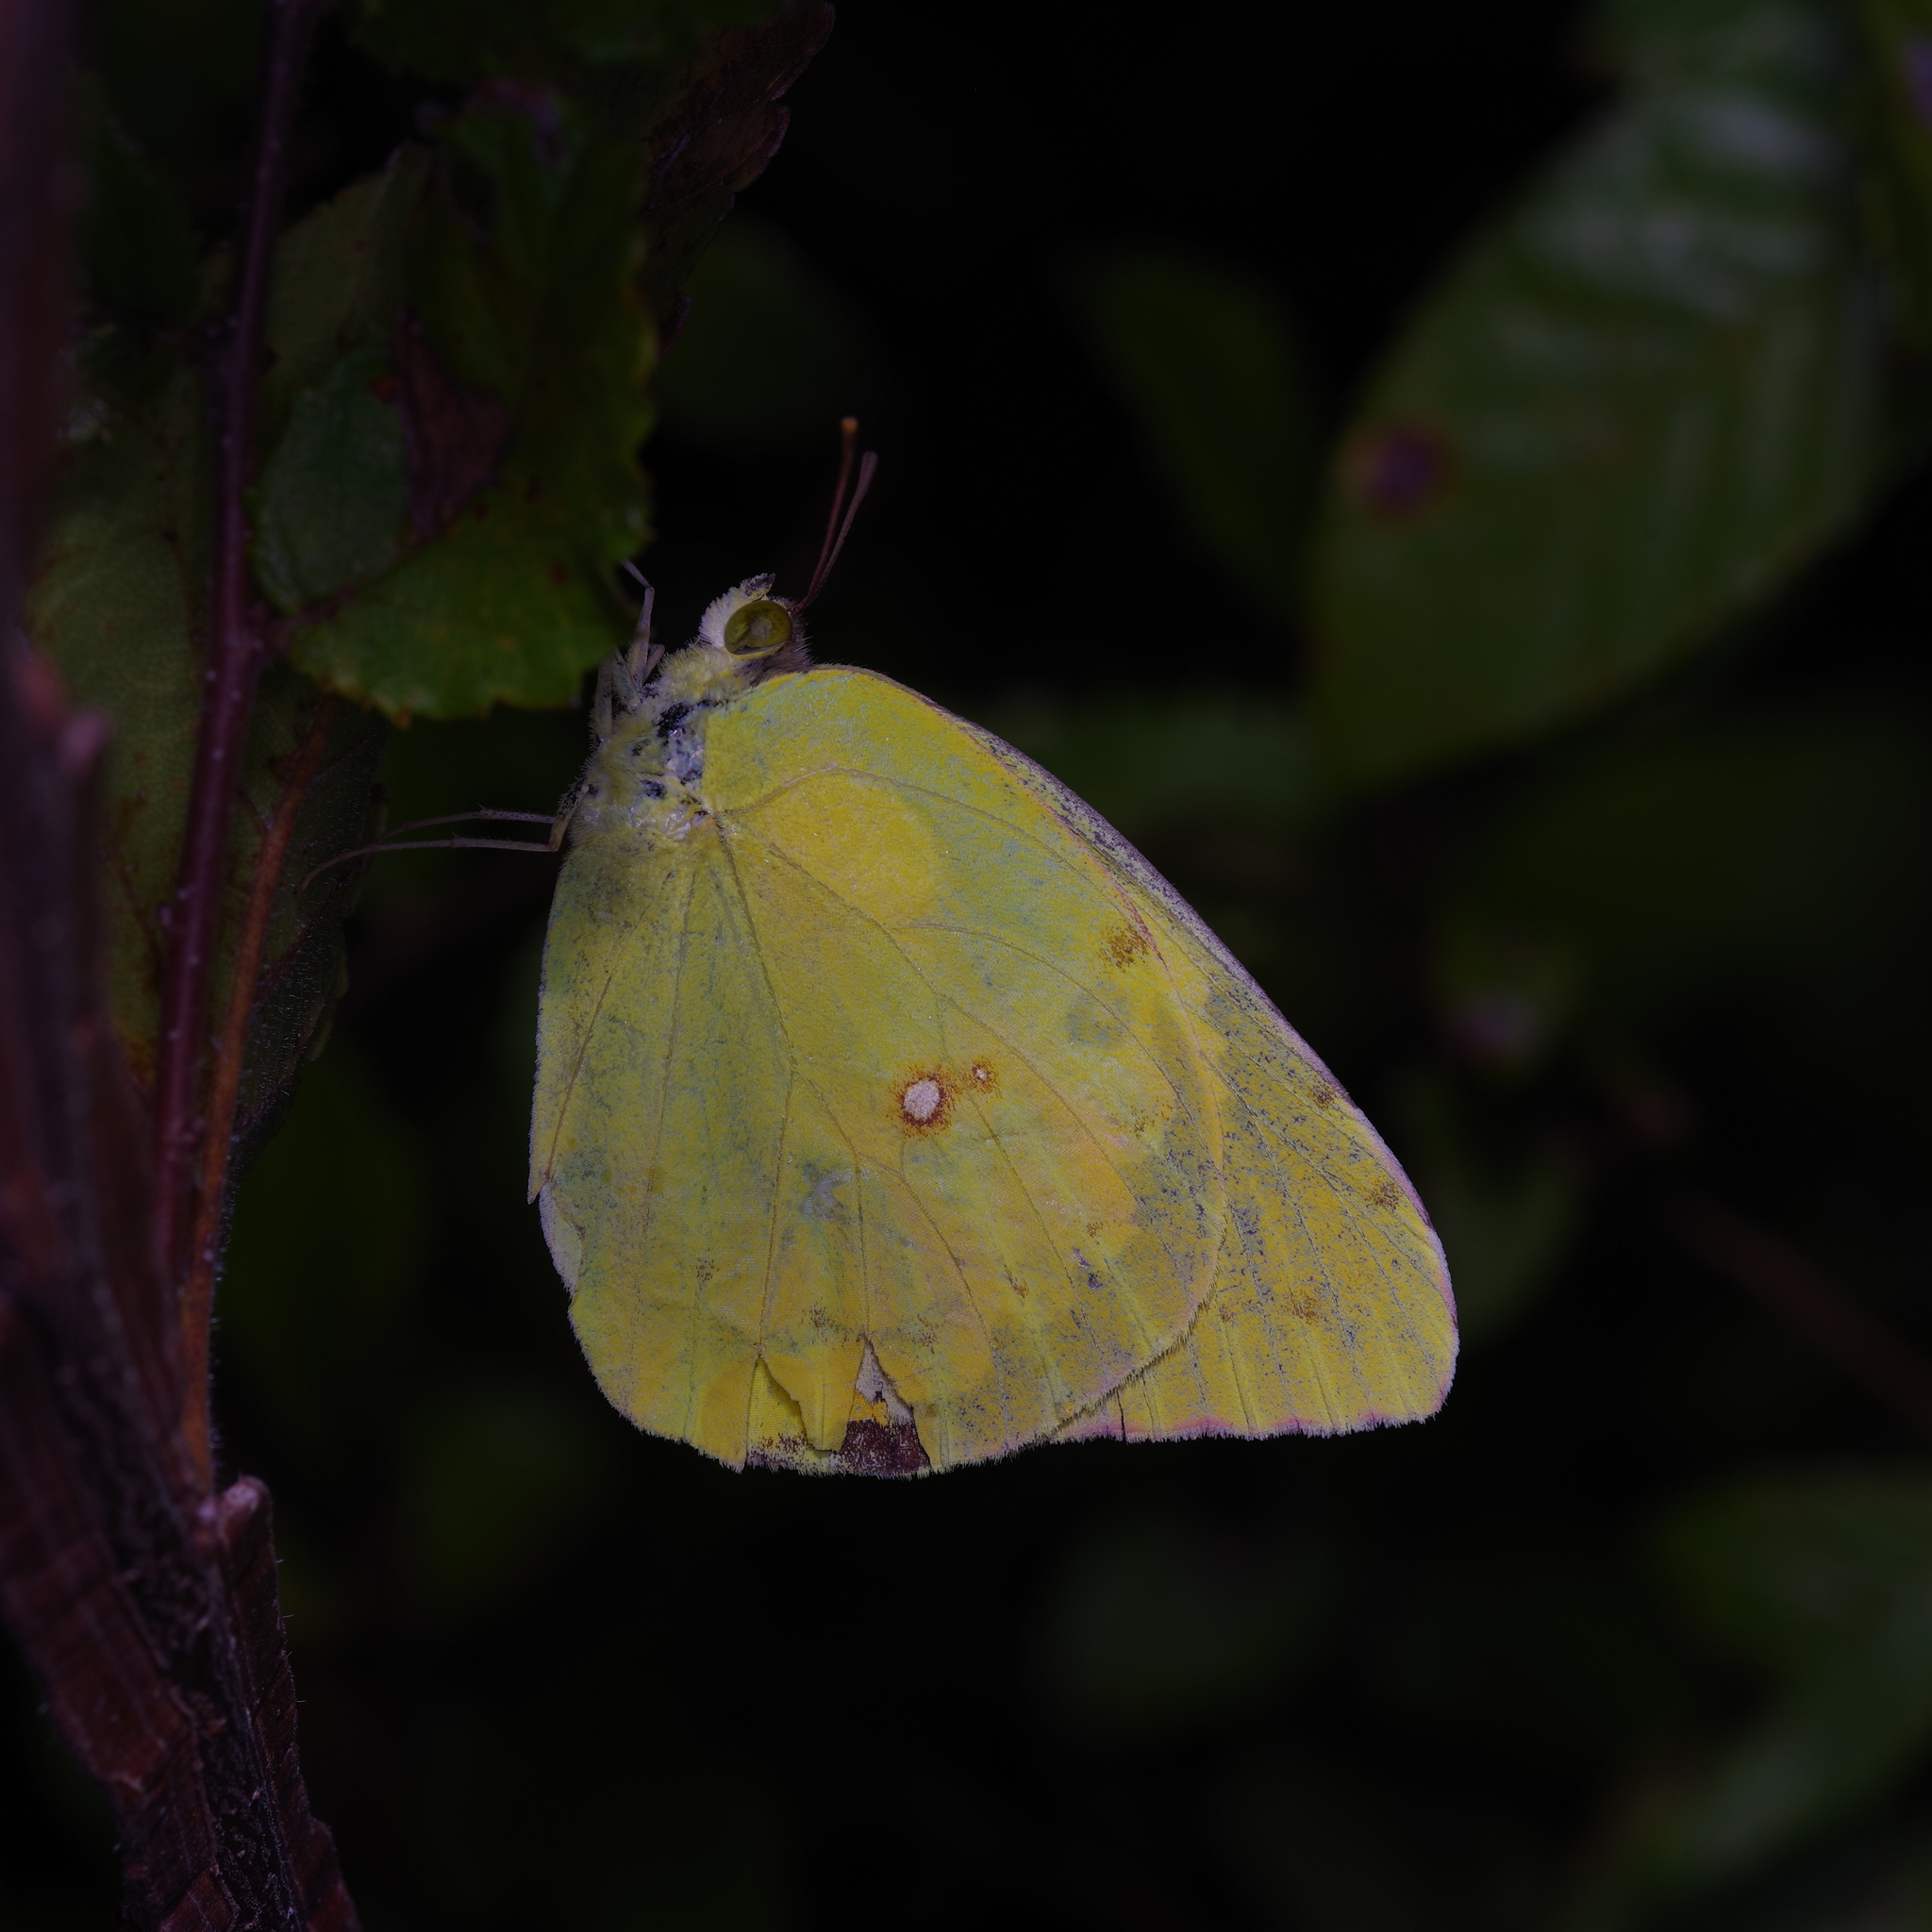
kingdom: Animalia
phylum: Arthropoda
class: Insecta
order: Lepidoptera
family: Pieridae
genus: Colias
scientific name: Colias eurytheme
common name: Alfalfa butterfly
